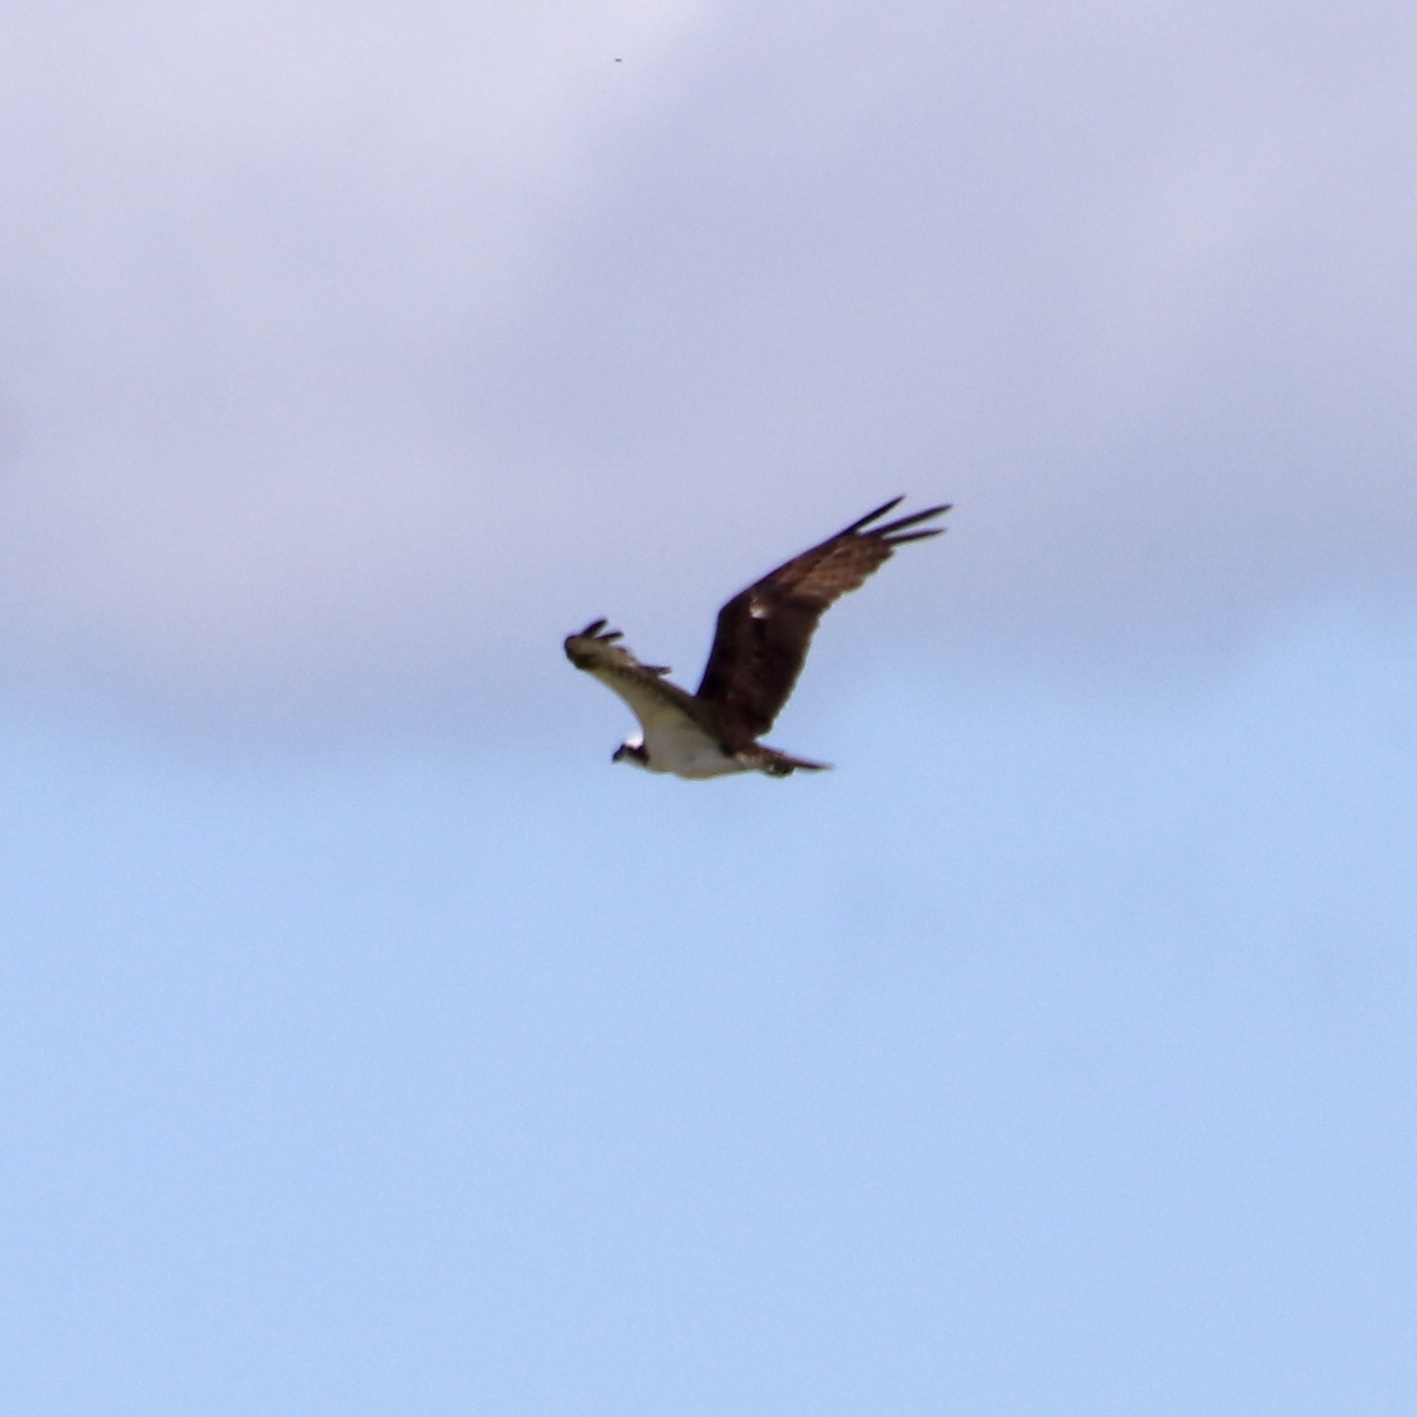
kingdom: Animalia
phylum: Chordata
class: Aves
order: Accipitriformes
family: Pandionidae
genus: Pandion
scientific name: Pandion haliaetus
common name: Osprey
